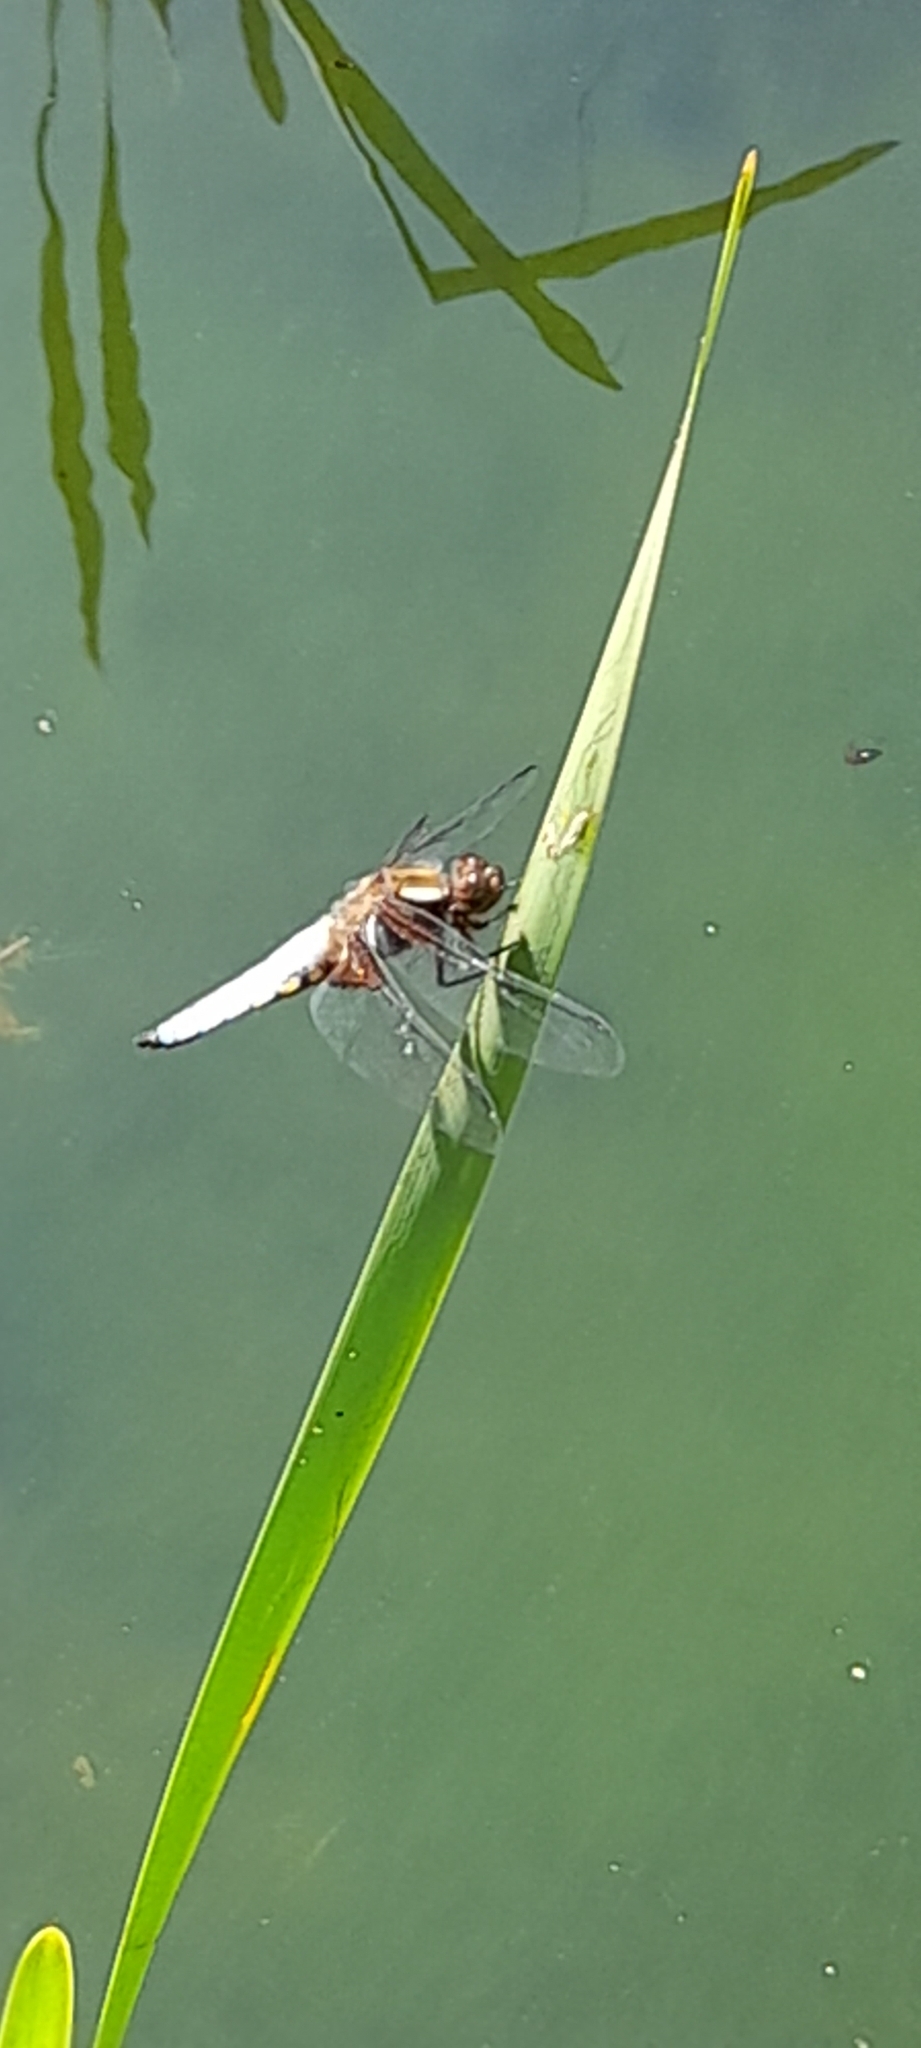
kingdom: Animalia
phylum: Arthropoda
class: Insecta
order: Odonata
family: Libellulidae
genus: Libellula
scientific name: Libellula depressa
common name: Broad-bodied chaser
